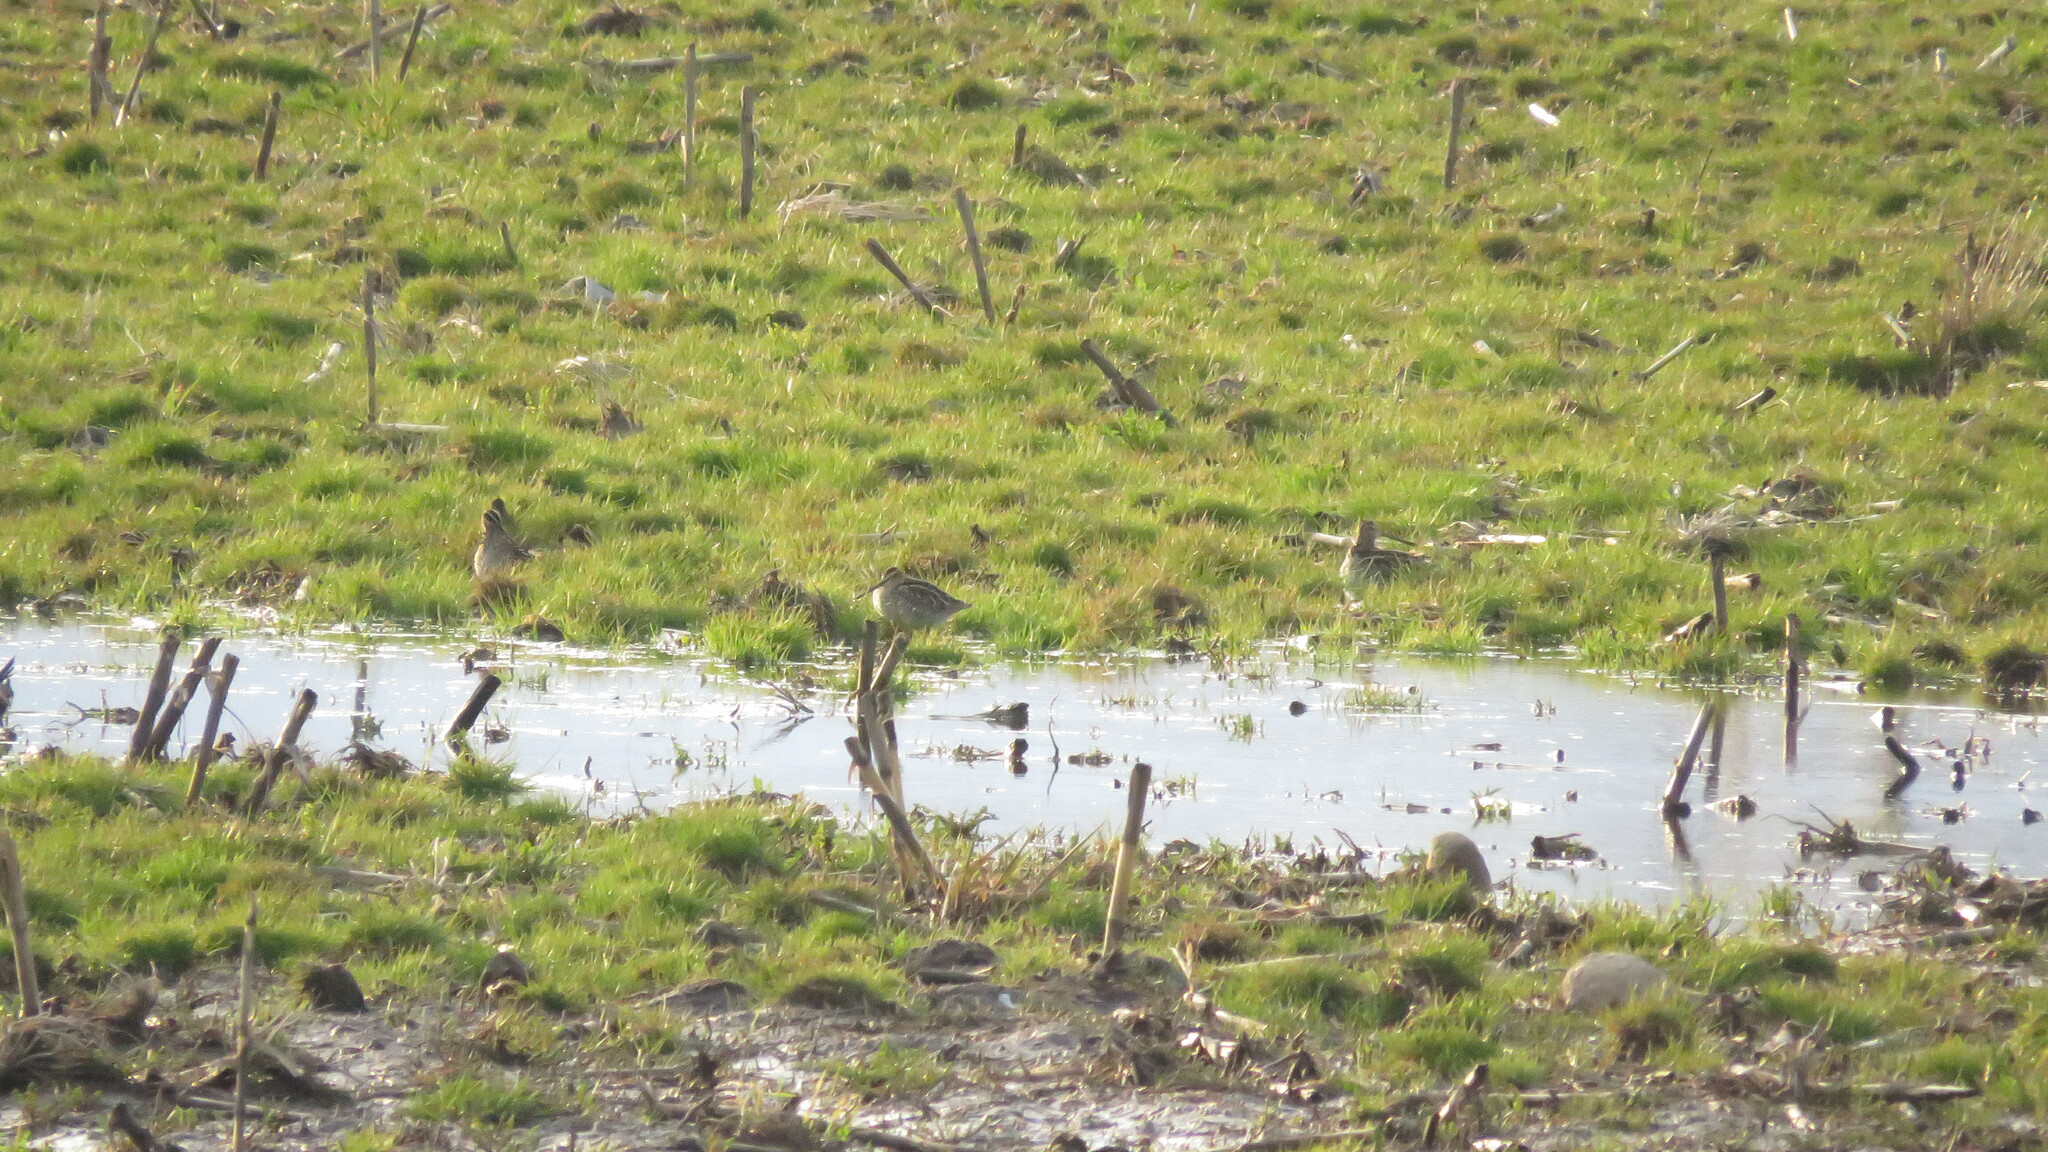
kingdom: Animalia
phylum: Chordata
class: Aves
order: Charadriiformes
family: Scolopacidae
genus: Gallinago
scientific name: Gallinago delicata
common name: Wilson's snipe
